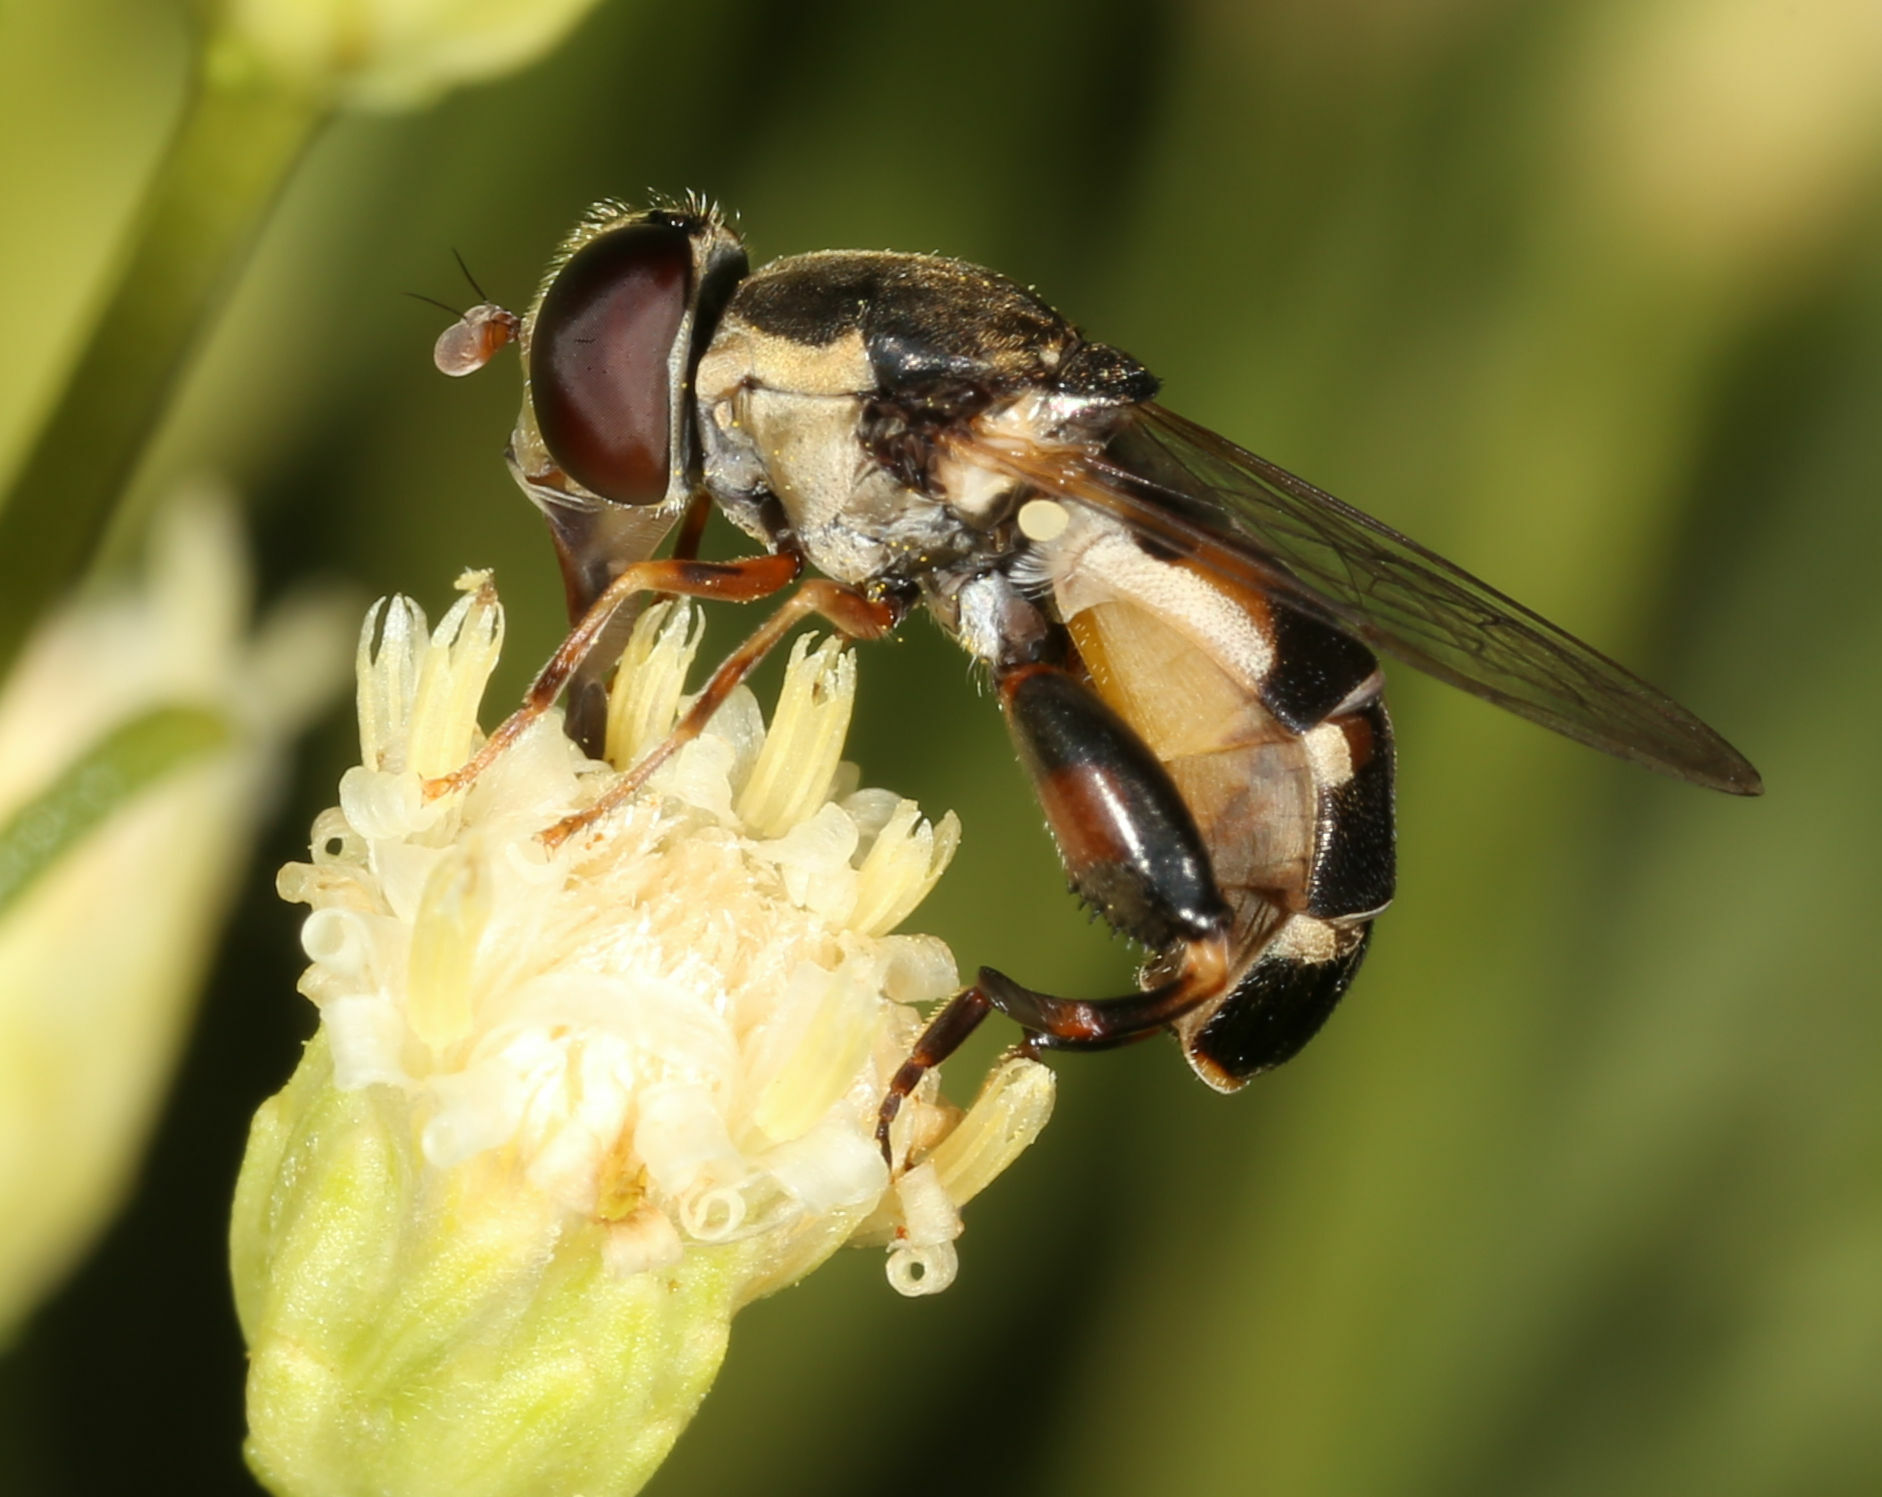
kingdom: Animalia
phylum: Arthropoda
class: Insecta
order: Diptera
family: Syrphidae
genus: Syritta
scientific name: Syritta pipiens
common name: Hover fly
